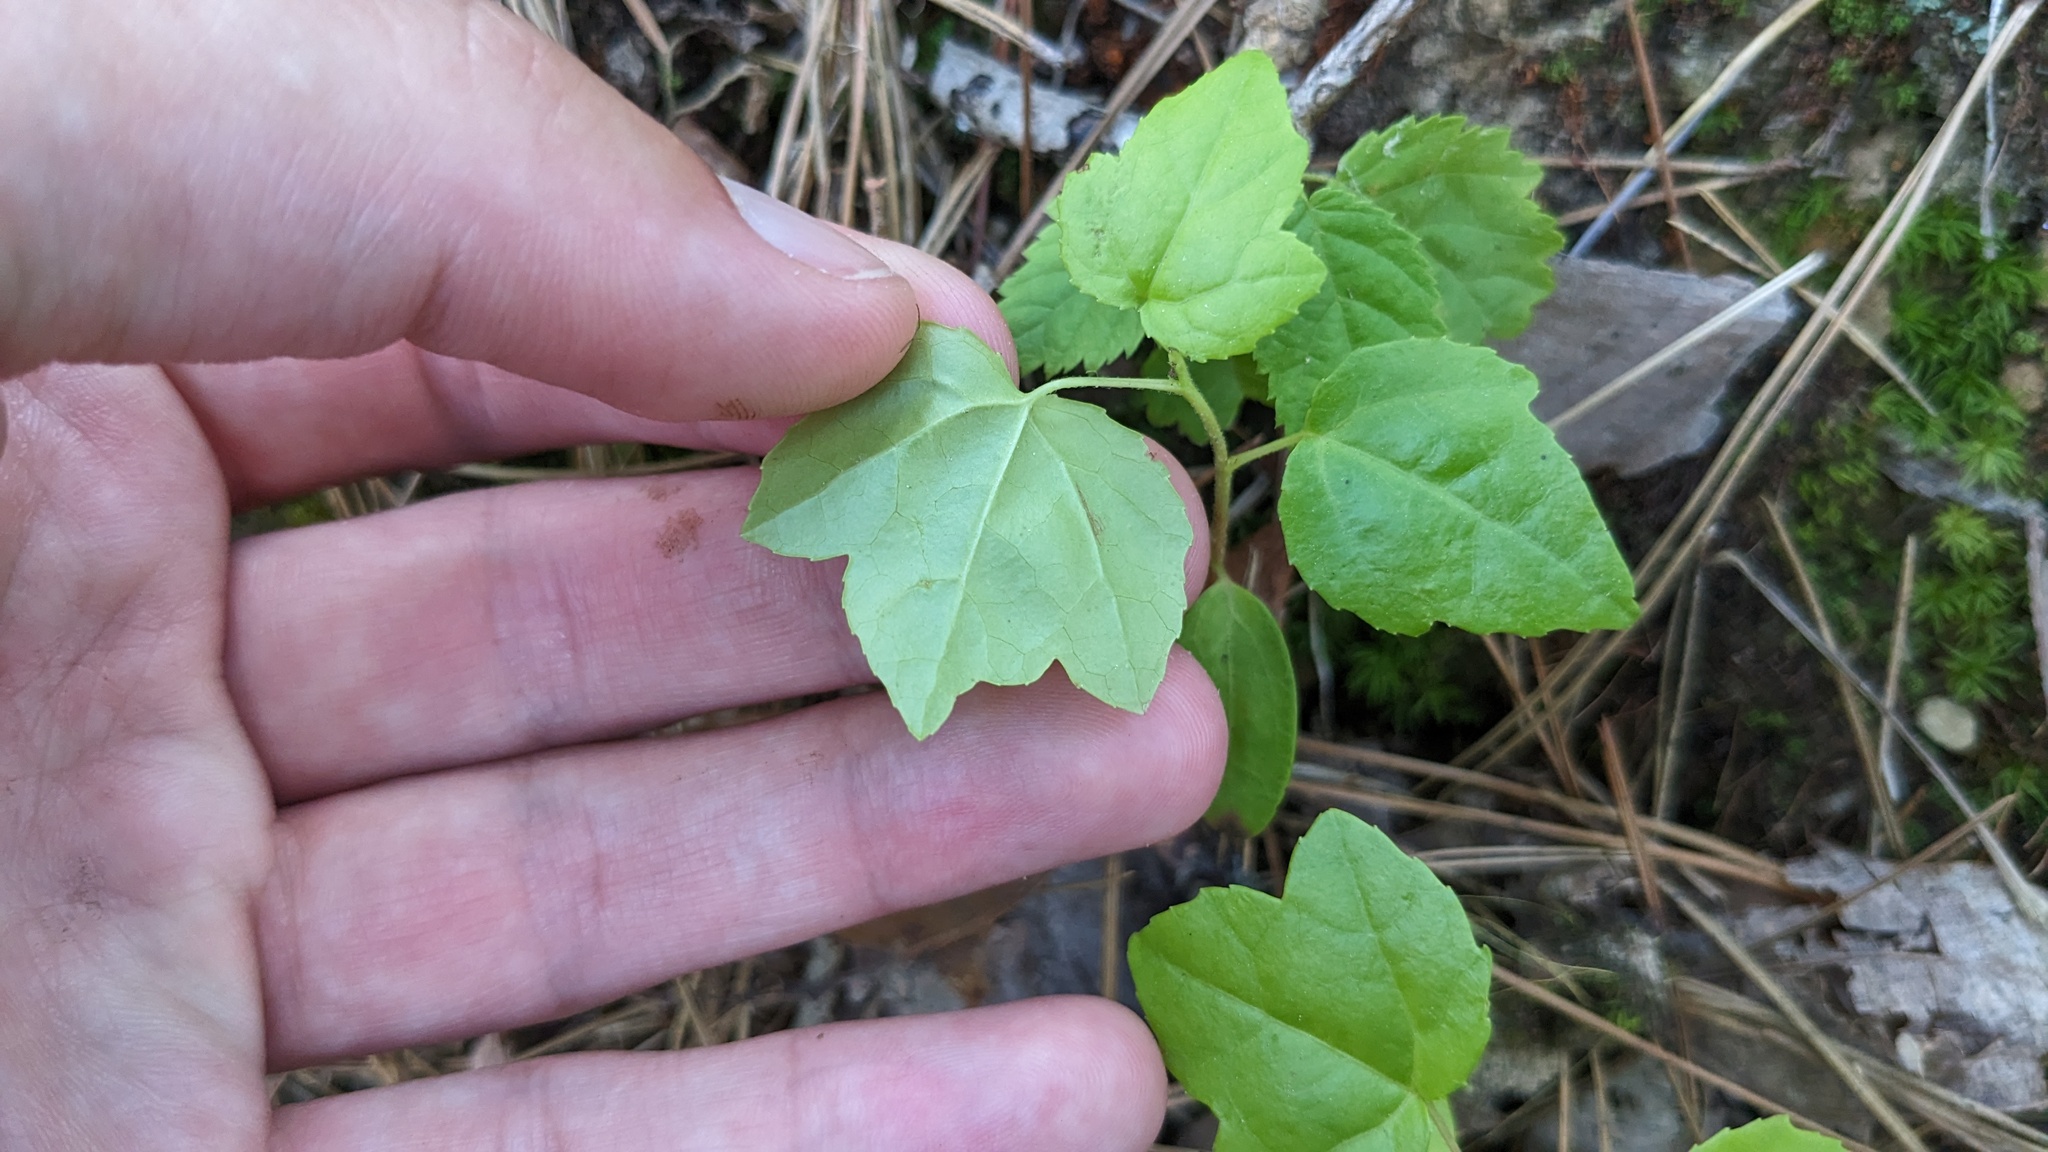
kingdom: Plantae
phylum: Tracheophyta
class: Magnoliopsida
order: Saxifragales
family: Altingiaceae
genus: Liquidambar
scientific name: Liquidambar styraciflua
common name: Sweet gum
